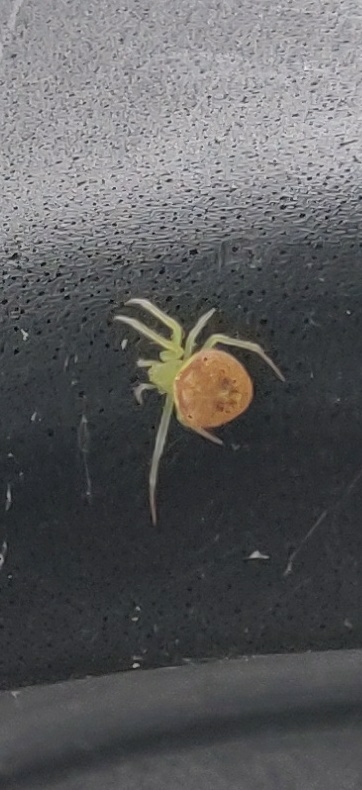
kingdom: Animalia
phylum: Arthropoda
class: Arachnida
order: Araneae
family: Araneidae
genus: Araneus
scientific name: Araneus alboventris
